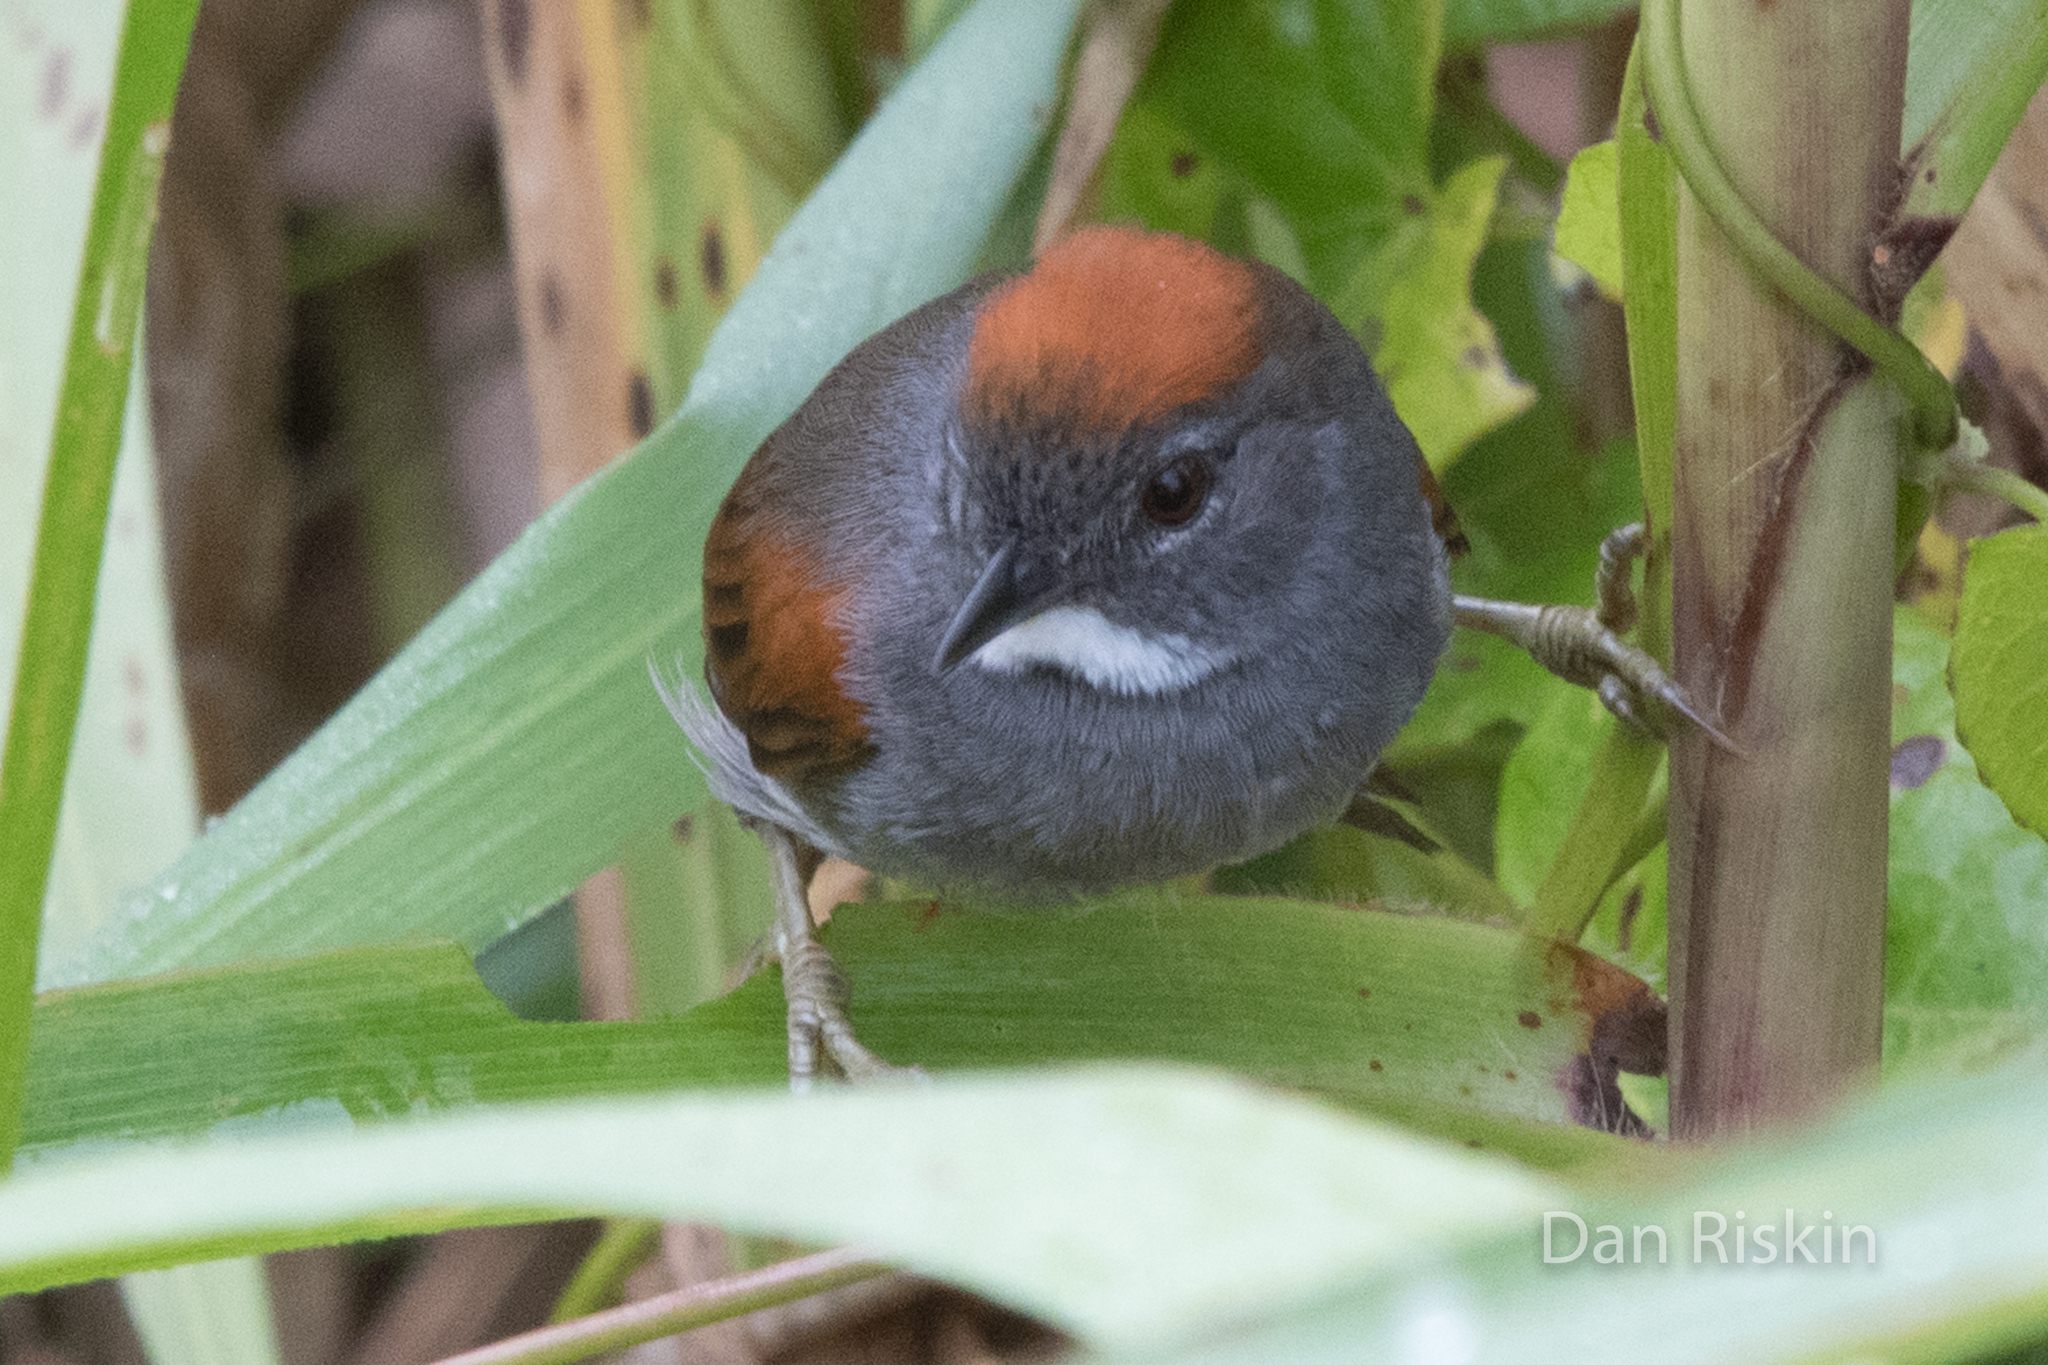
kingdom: Animalia
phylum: Chordata
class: Aves
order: Passeriformes
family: Furnariidae
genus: Synallaxis
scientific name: Synallaxis albigularis
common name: Dark-breasted spinetail
